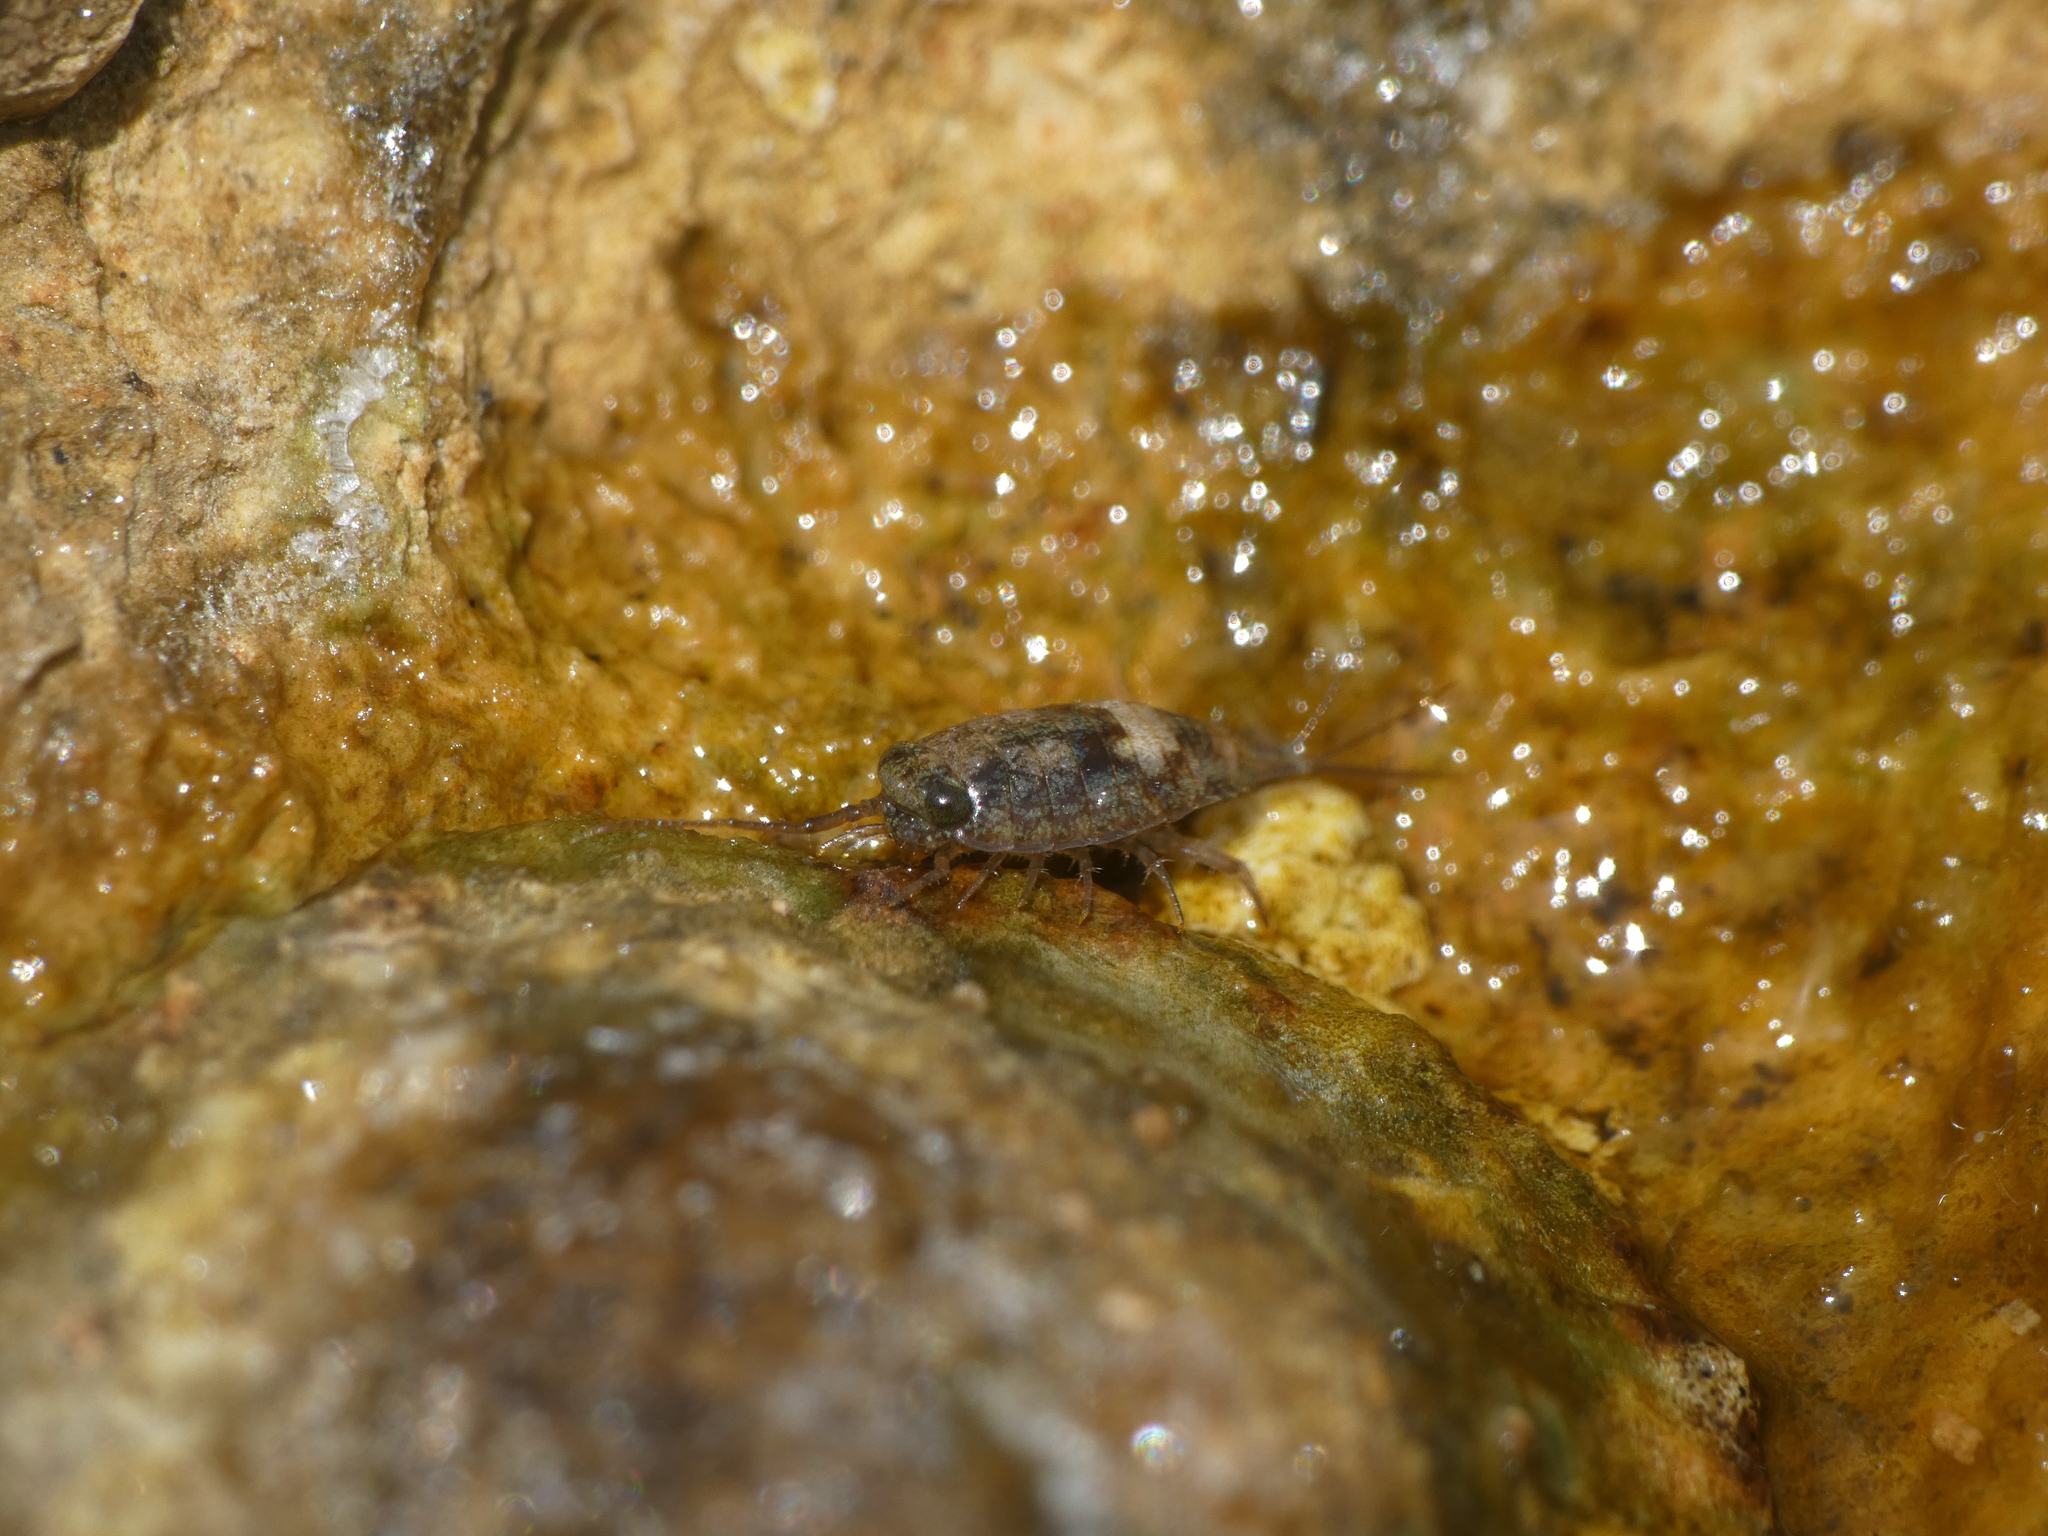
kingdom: Animalia
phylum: Arthropoda
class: Malacostraca
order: Isopoda
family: Ligiidae
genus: Ligia
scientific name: Ligia italica
